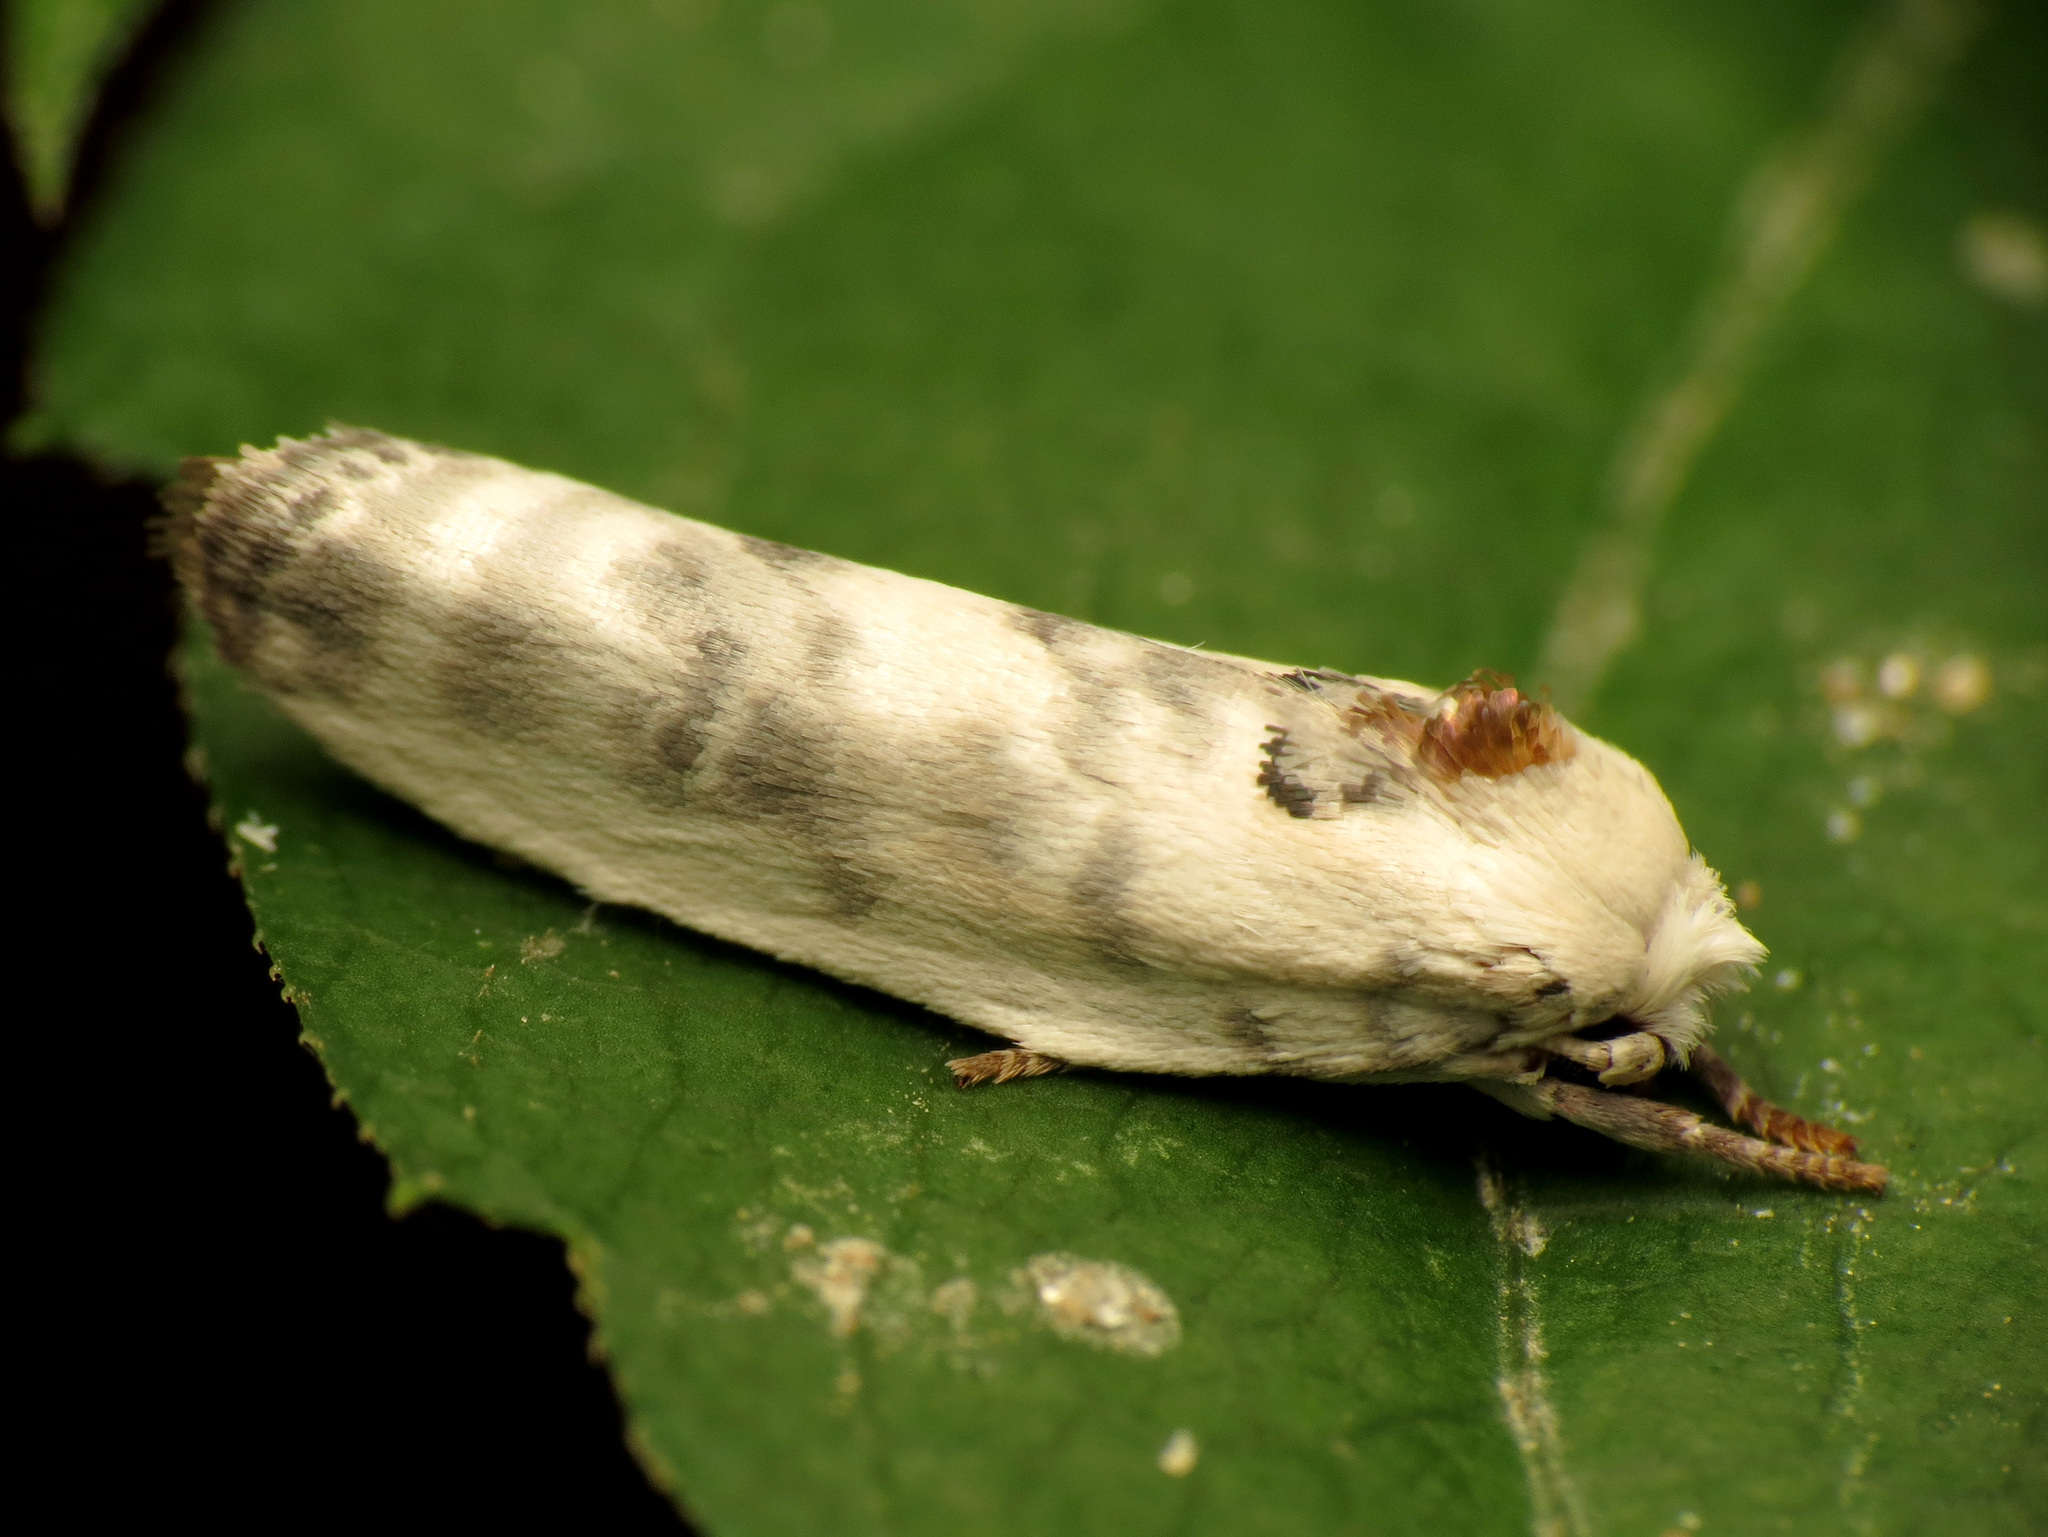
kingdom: Animalia
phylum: Arthropoda
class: Insecta
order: Lepidoptera
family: Depressariidae
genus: Antaeotricha
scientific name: Antaeotricha leucillana
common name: Pale gray bird-dropping moth
